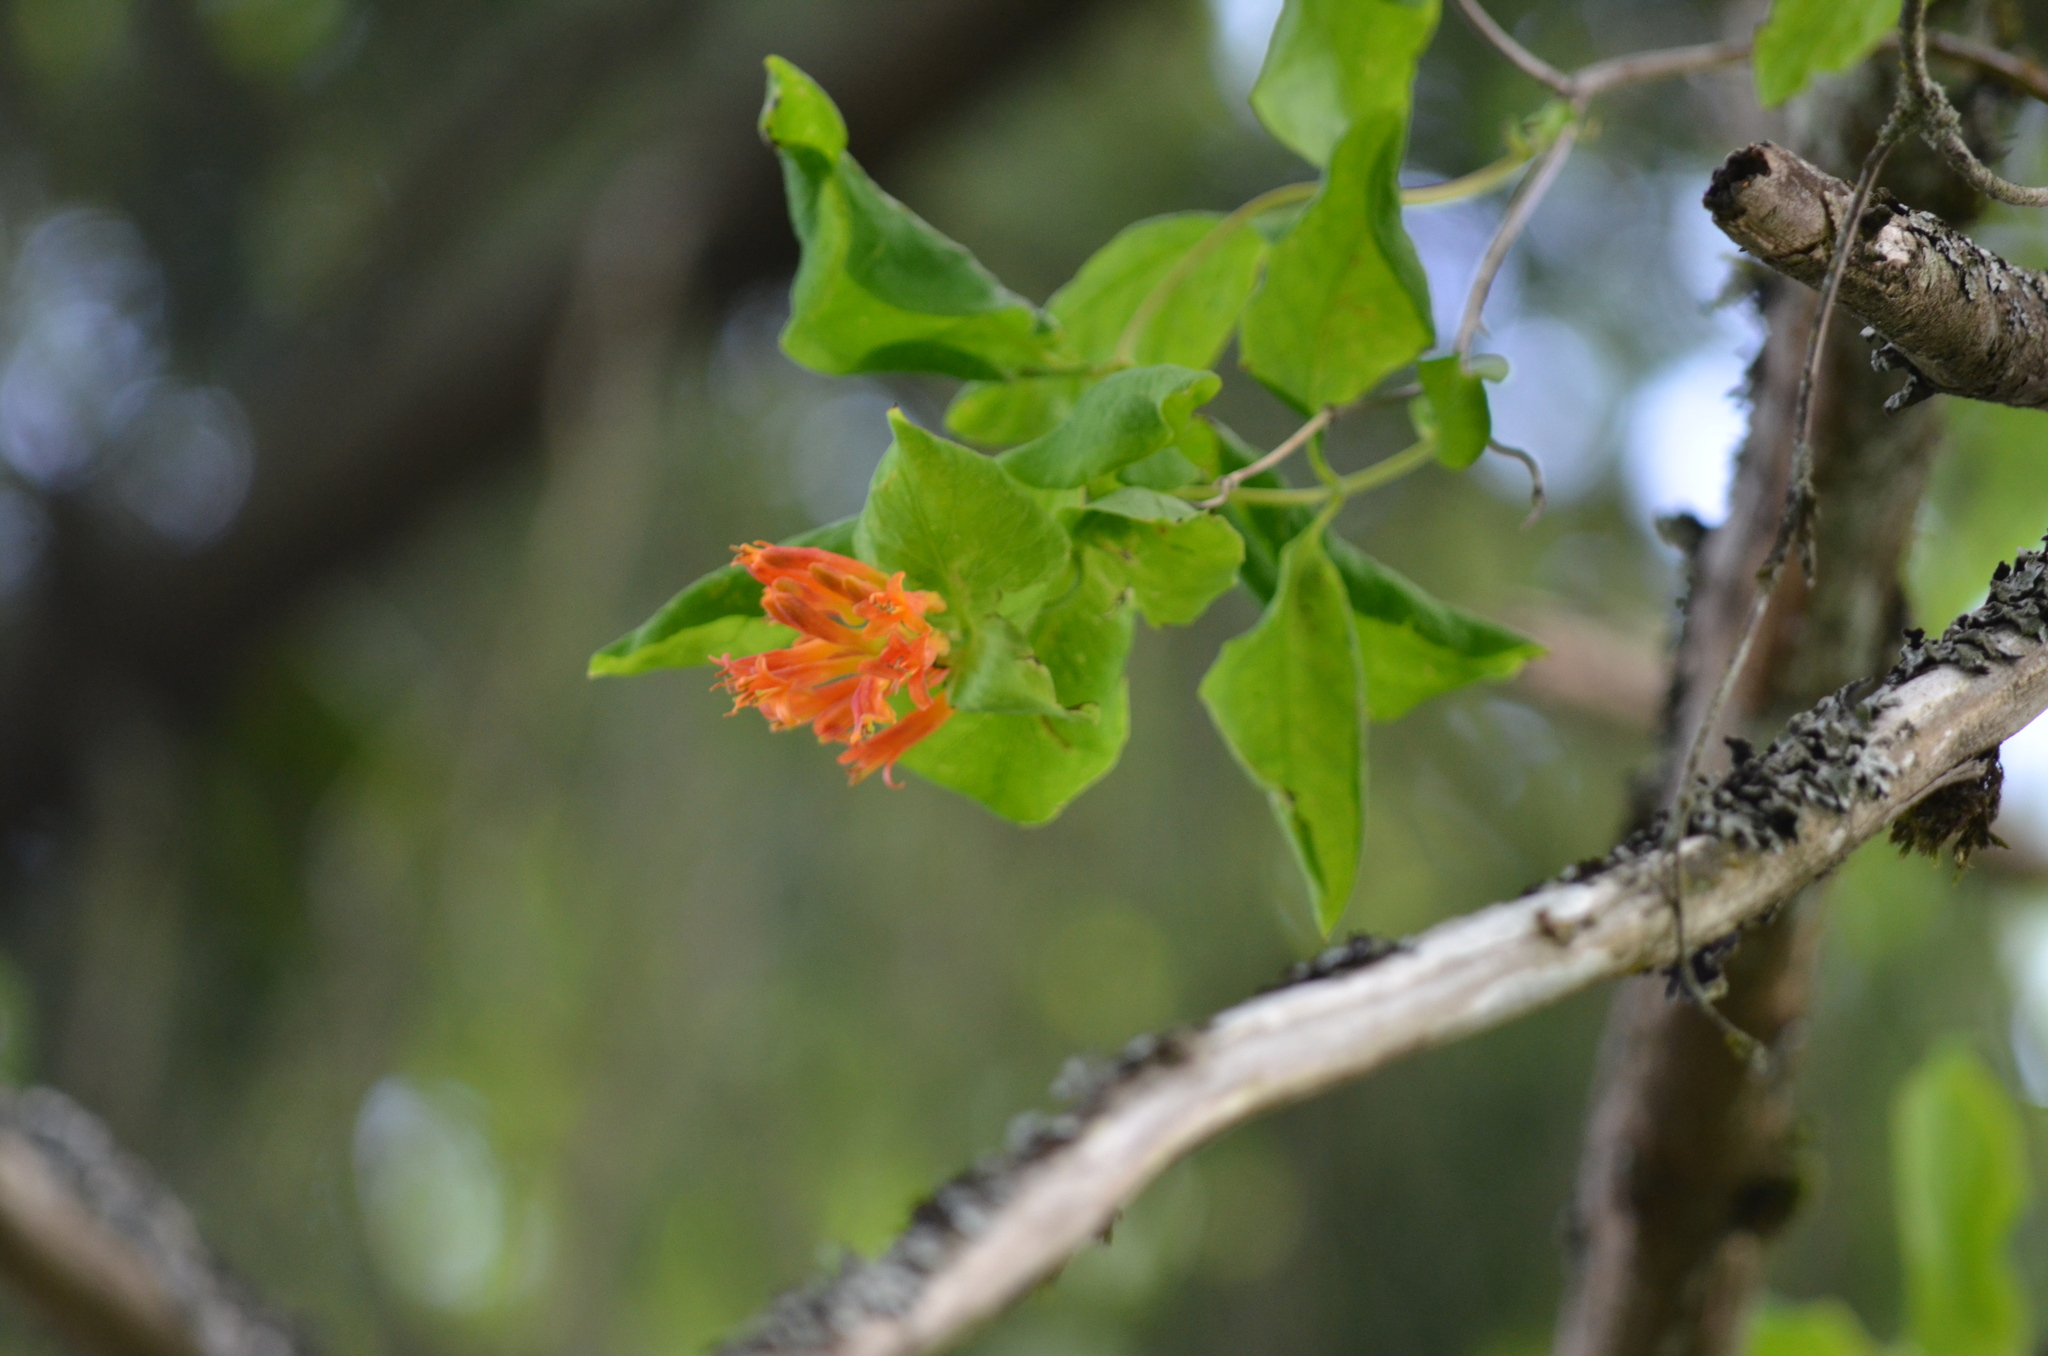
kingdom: Plantae
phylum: Tracheophyta
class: Magnoliopsida
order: Dipsacales
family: Caprifoliaceae
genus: Lonicera
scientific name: Lonicera ciliosa
